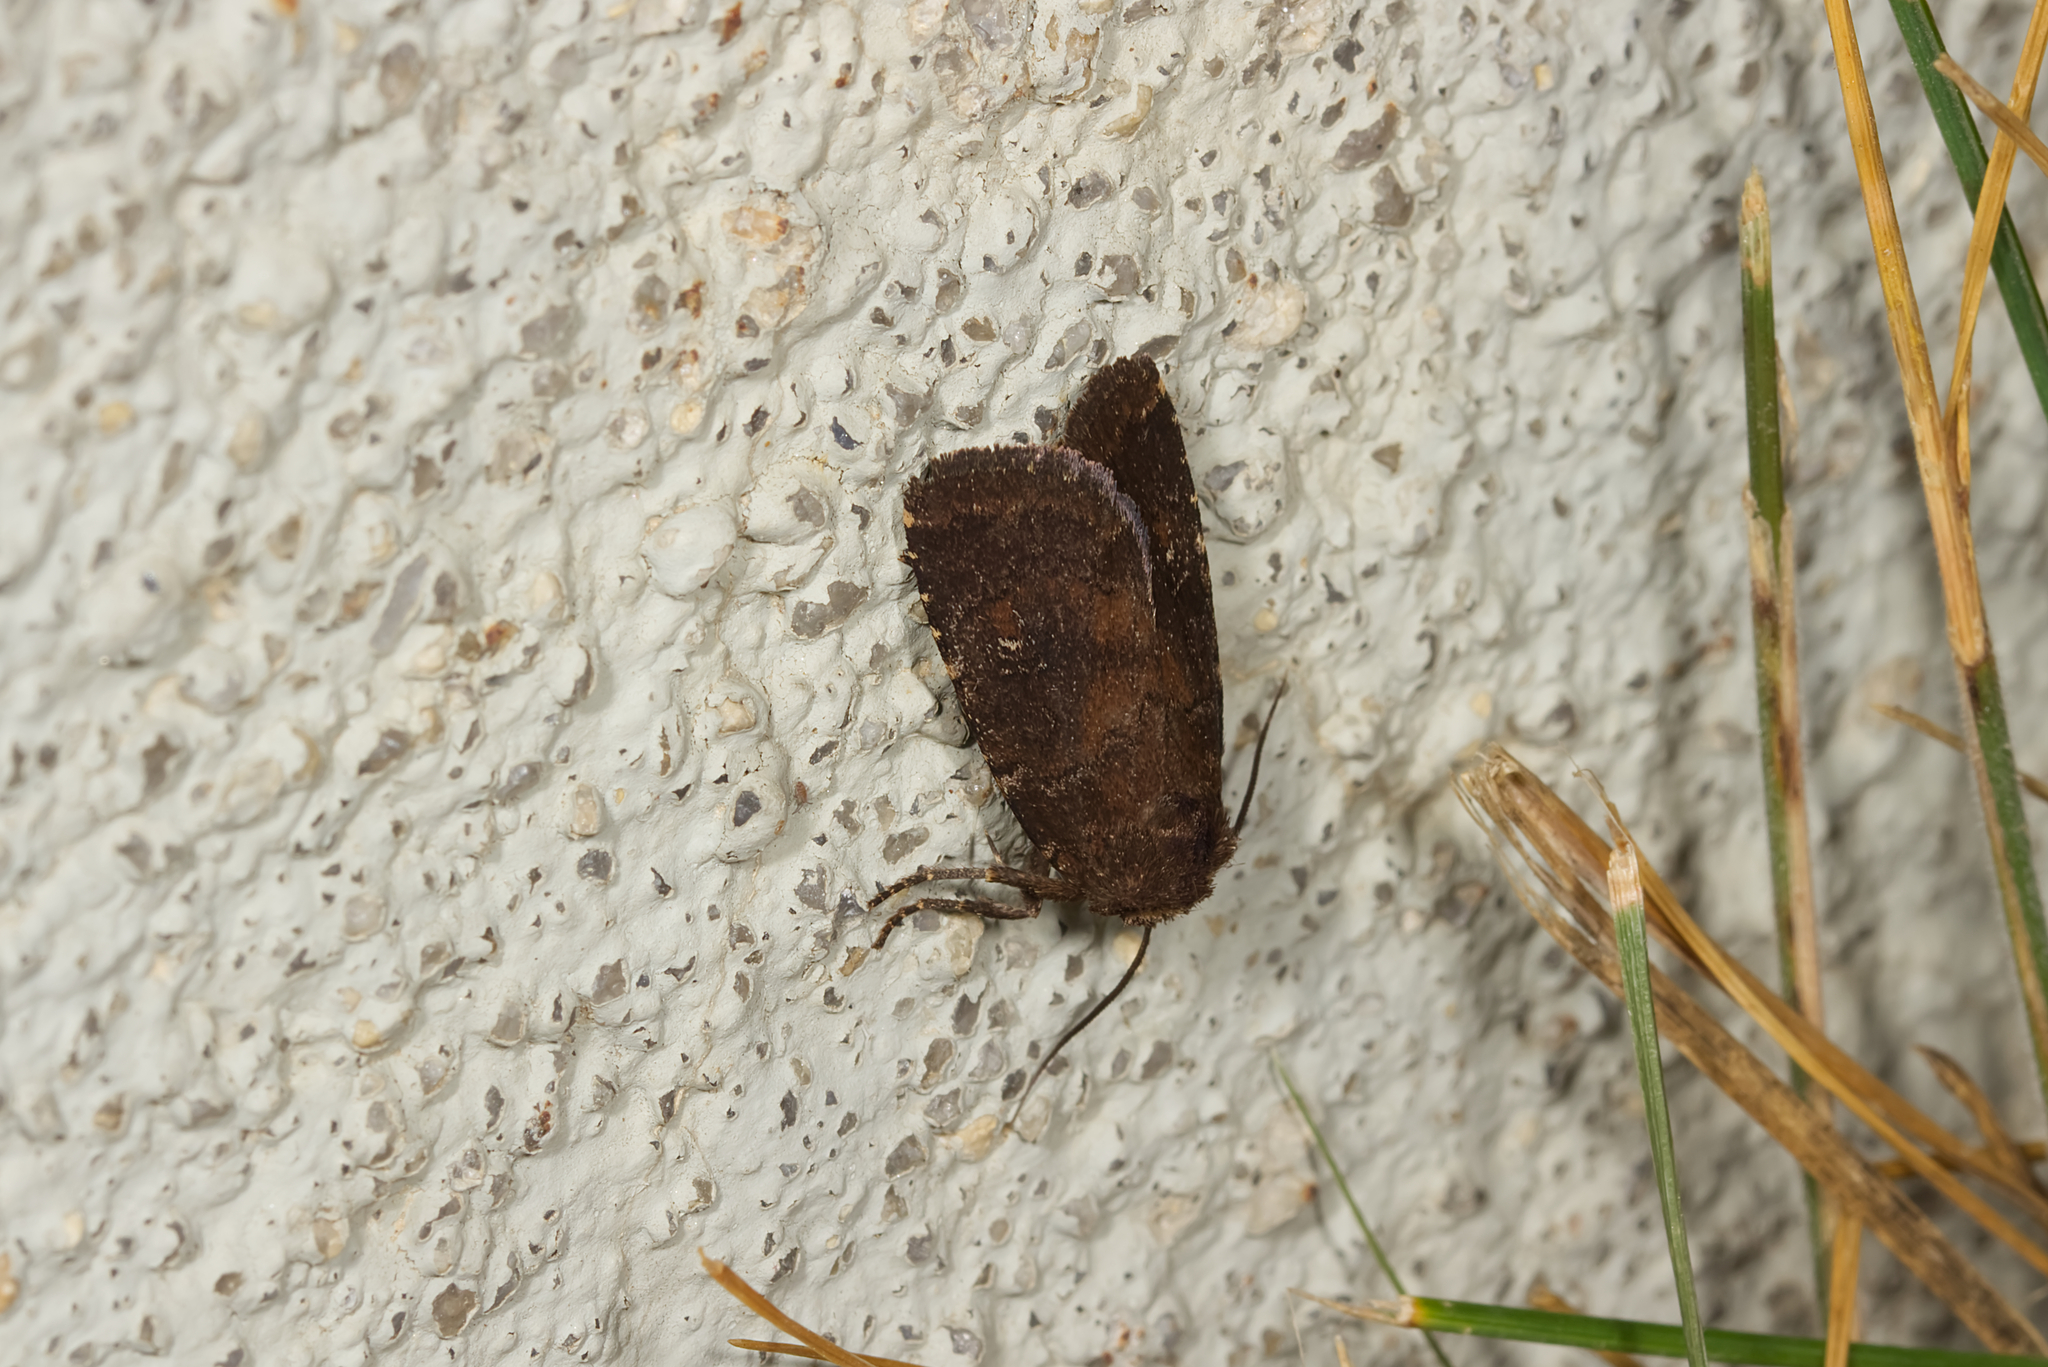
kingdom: Animalia
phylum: Arthropoda
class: Insecta
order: Lepidoptera
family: Noctuidae
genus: Charanyca
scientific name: Charanyca ferruginea
